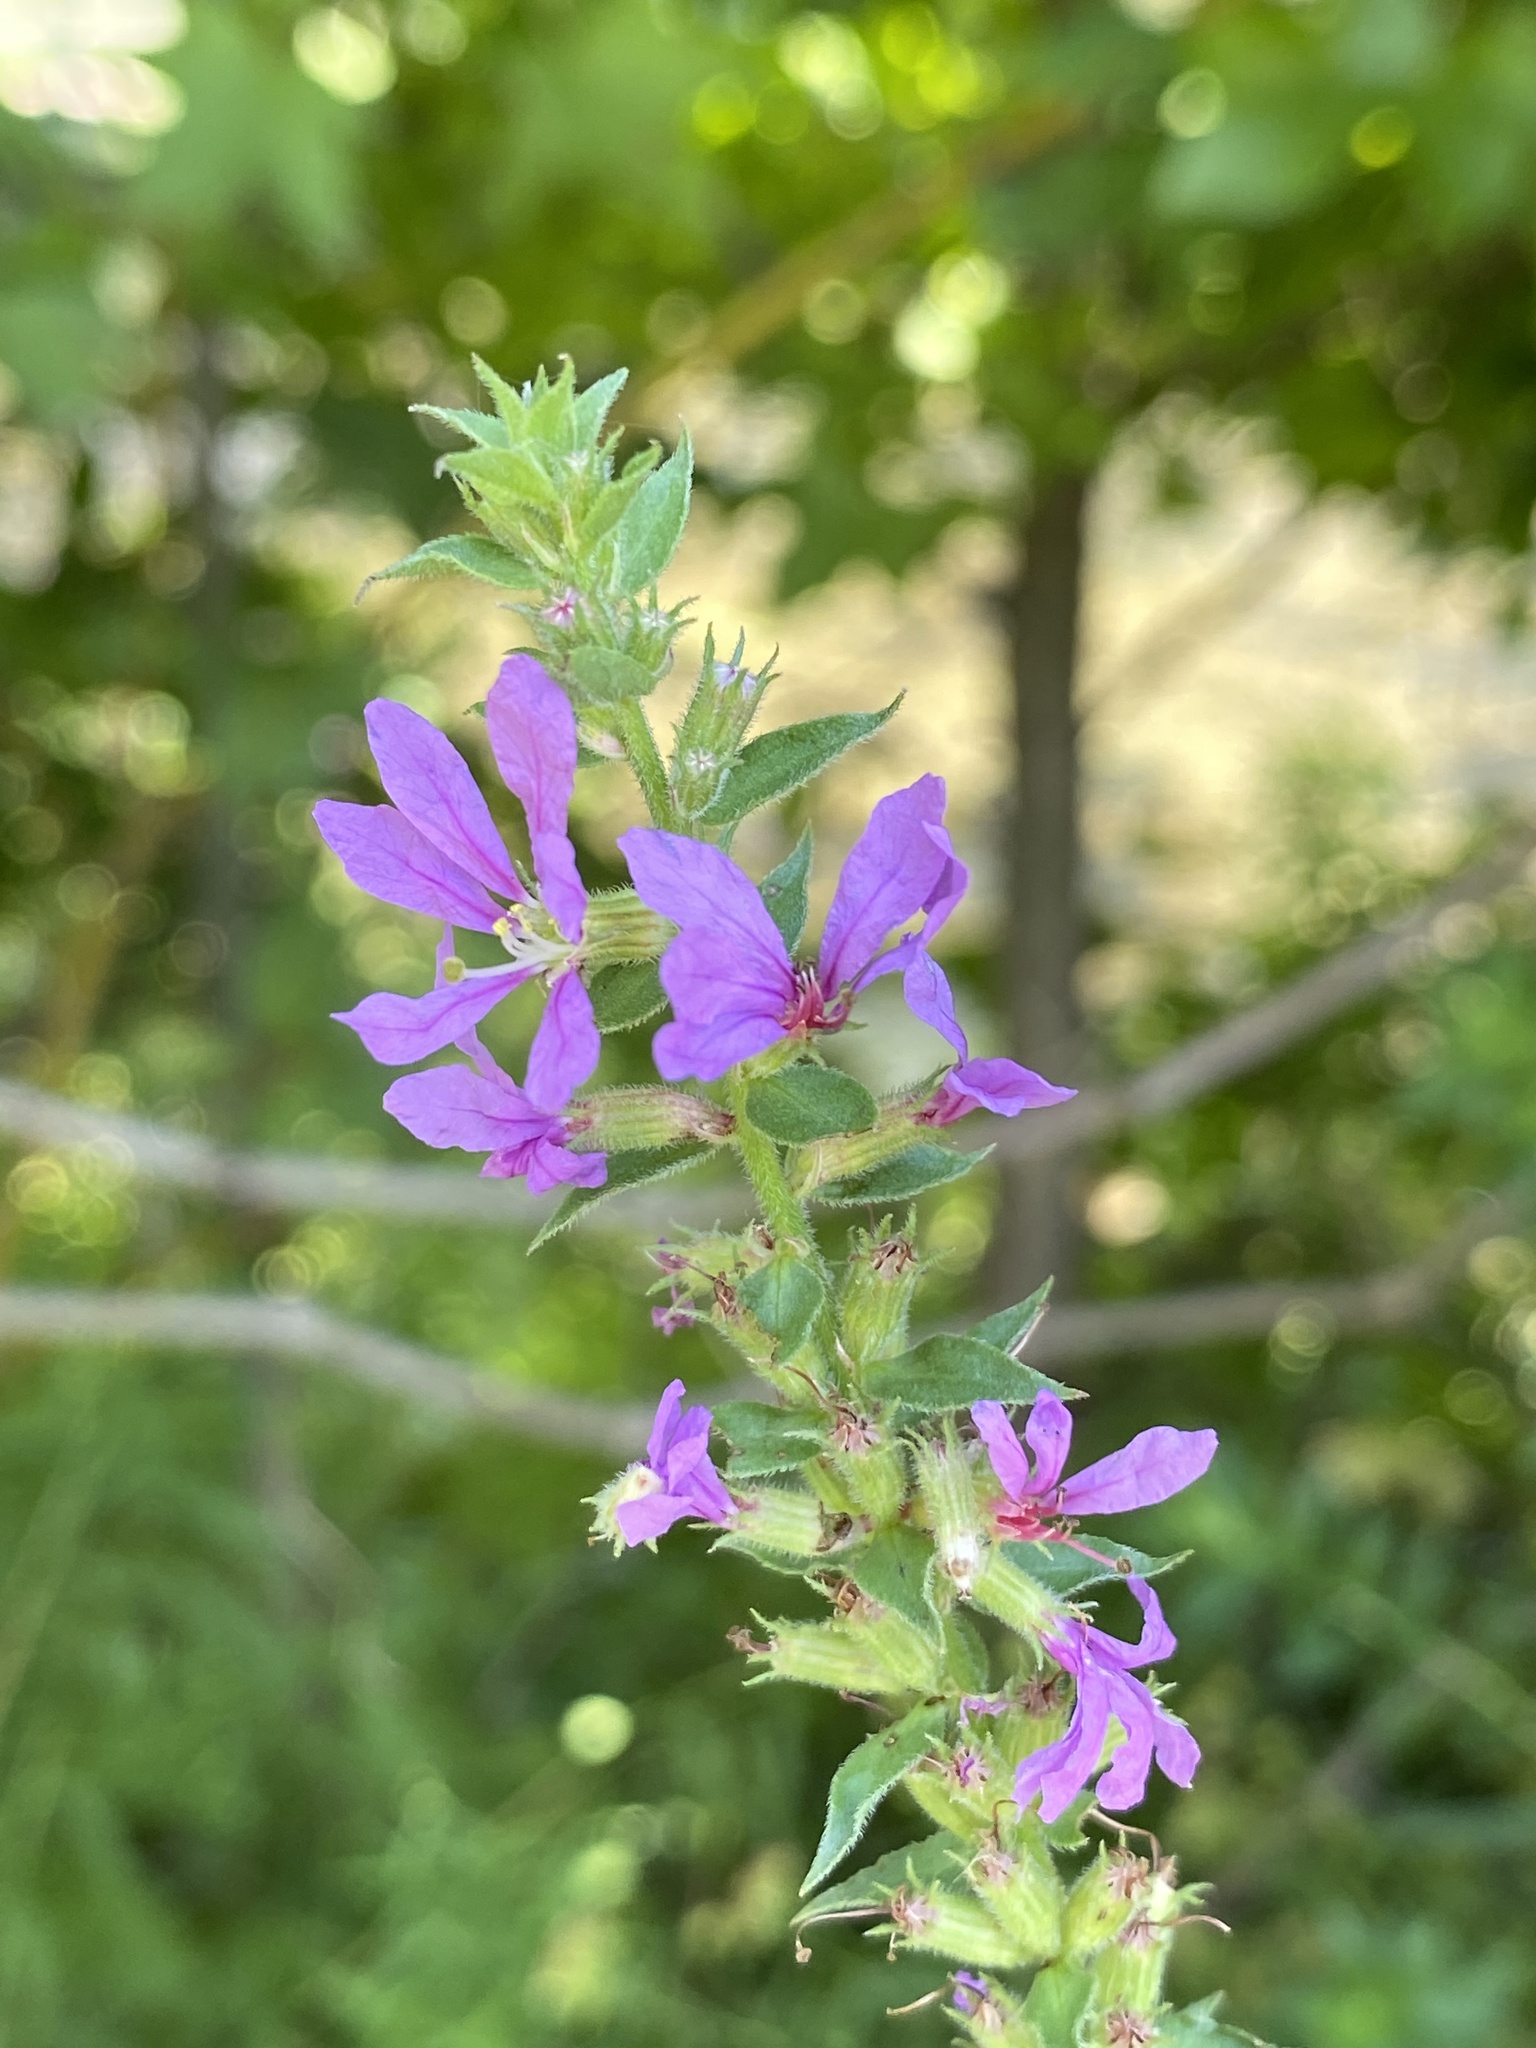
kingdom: Plantae
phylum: Tracheophyta
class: Magnoliopsida
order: Myrtales
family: Lythraceae
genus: Lythrum
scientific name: Lythrum salicaria
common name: Purple loosestrife
